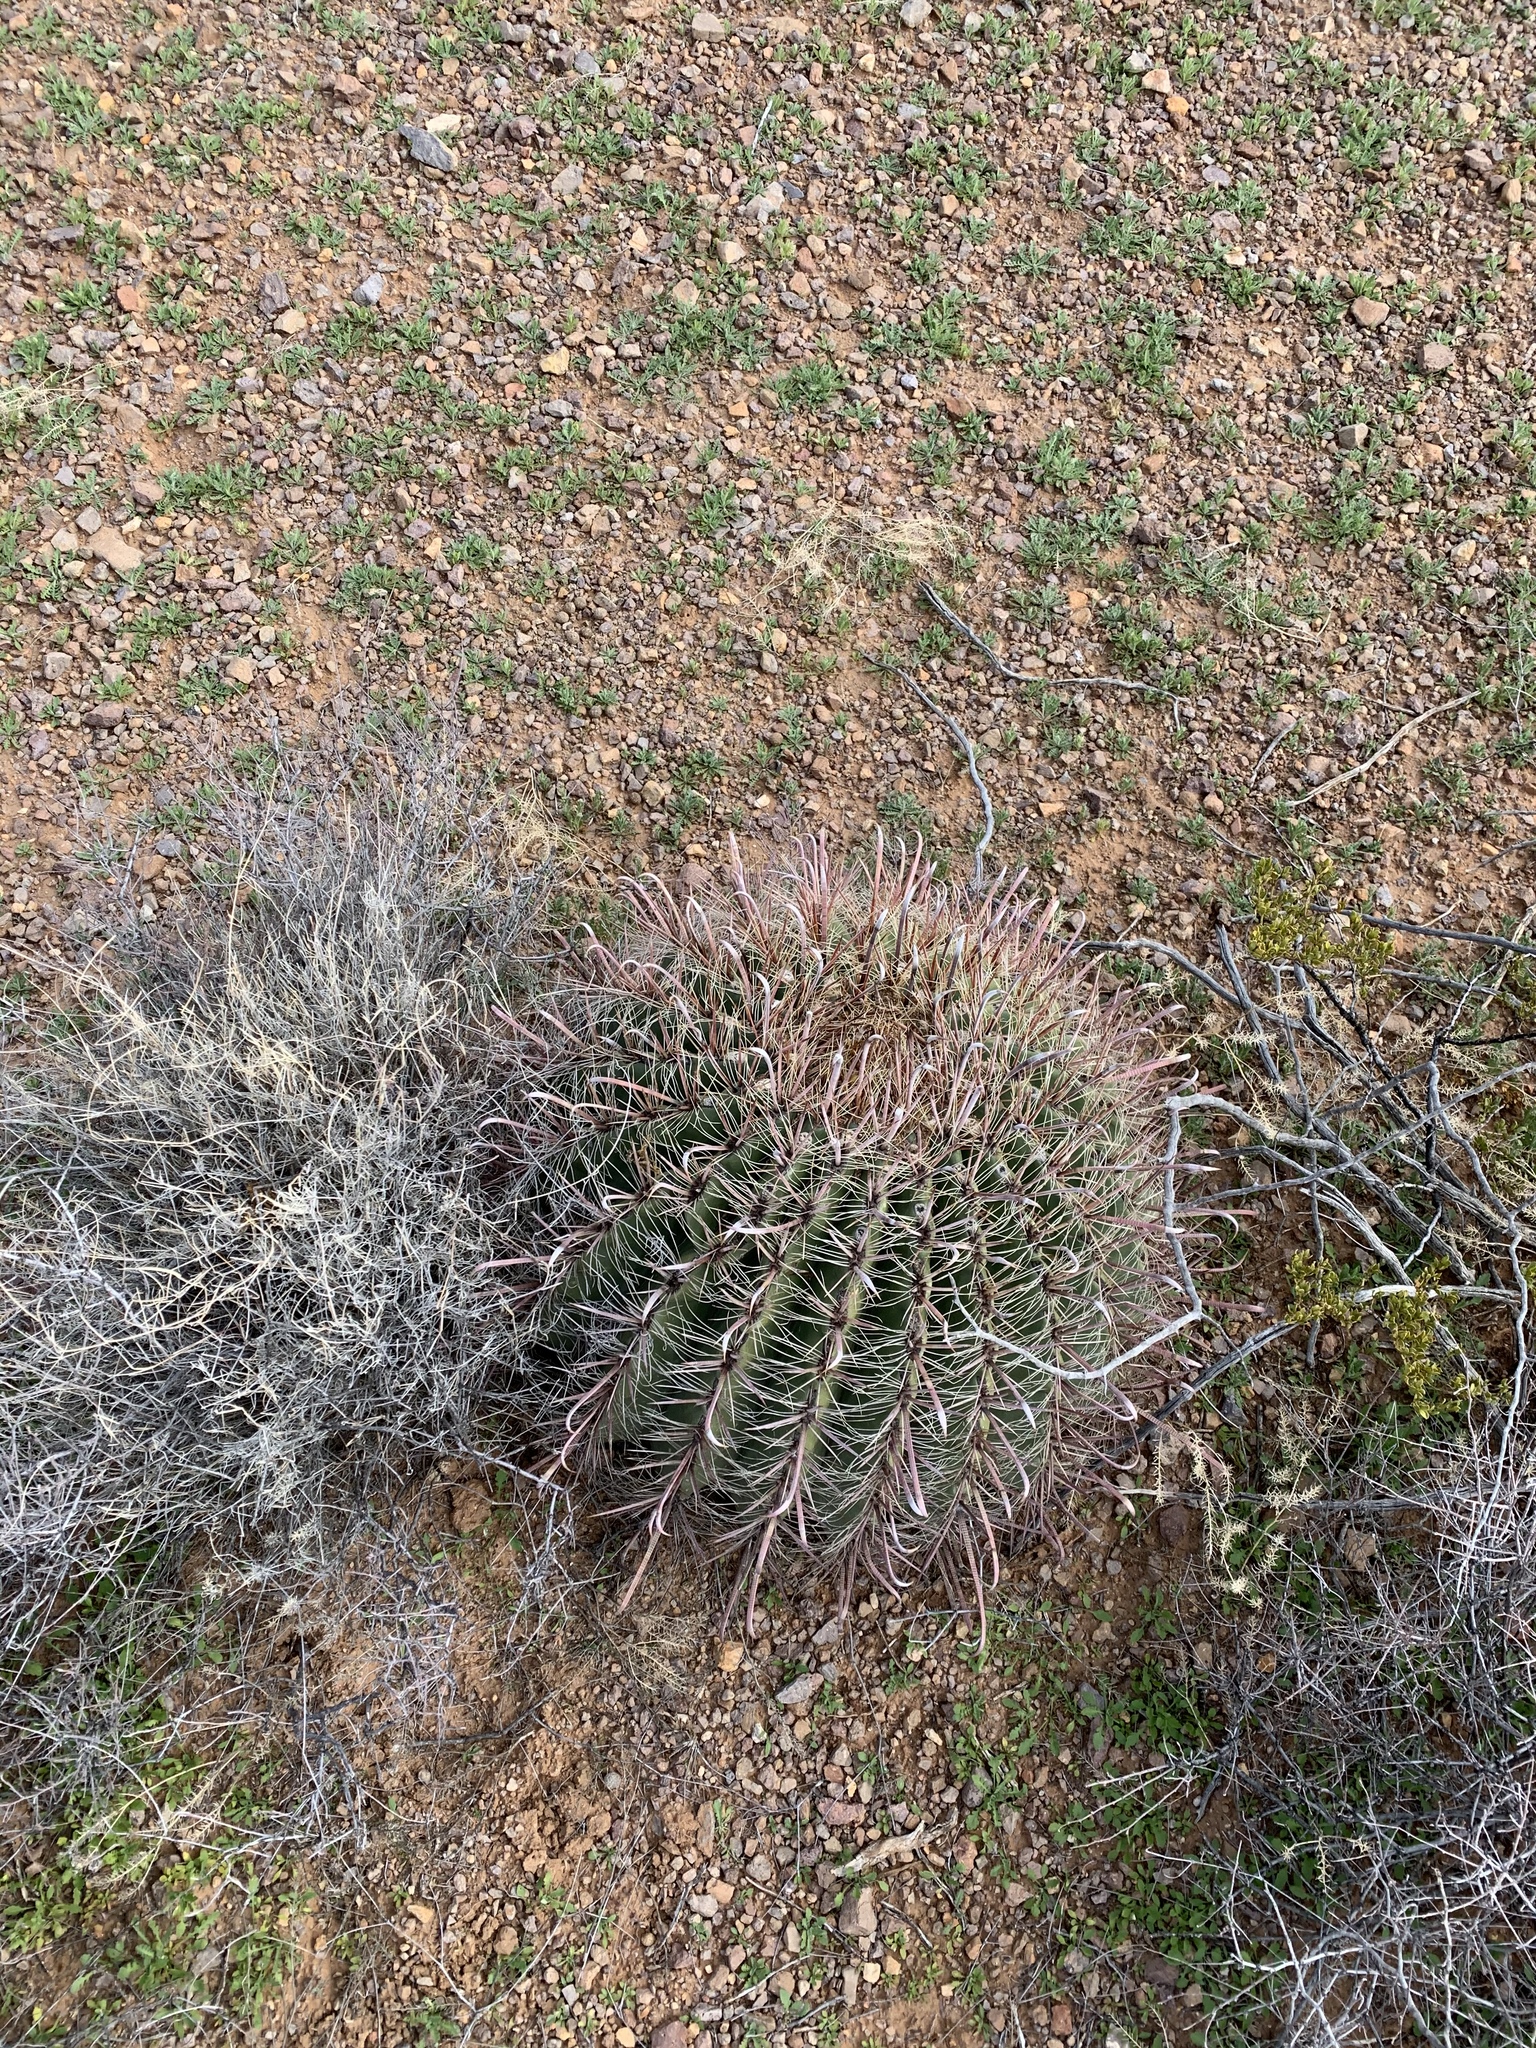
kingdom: Plantae
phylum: Tracheophyta
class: Magnoliopsida
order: Caryophyllales
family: Cactaceae
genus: Ferocactus
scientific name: Ferocactus wislizeni
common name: Candy barrel cactus
